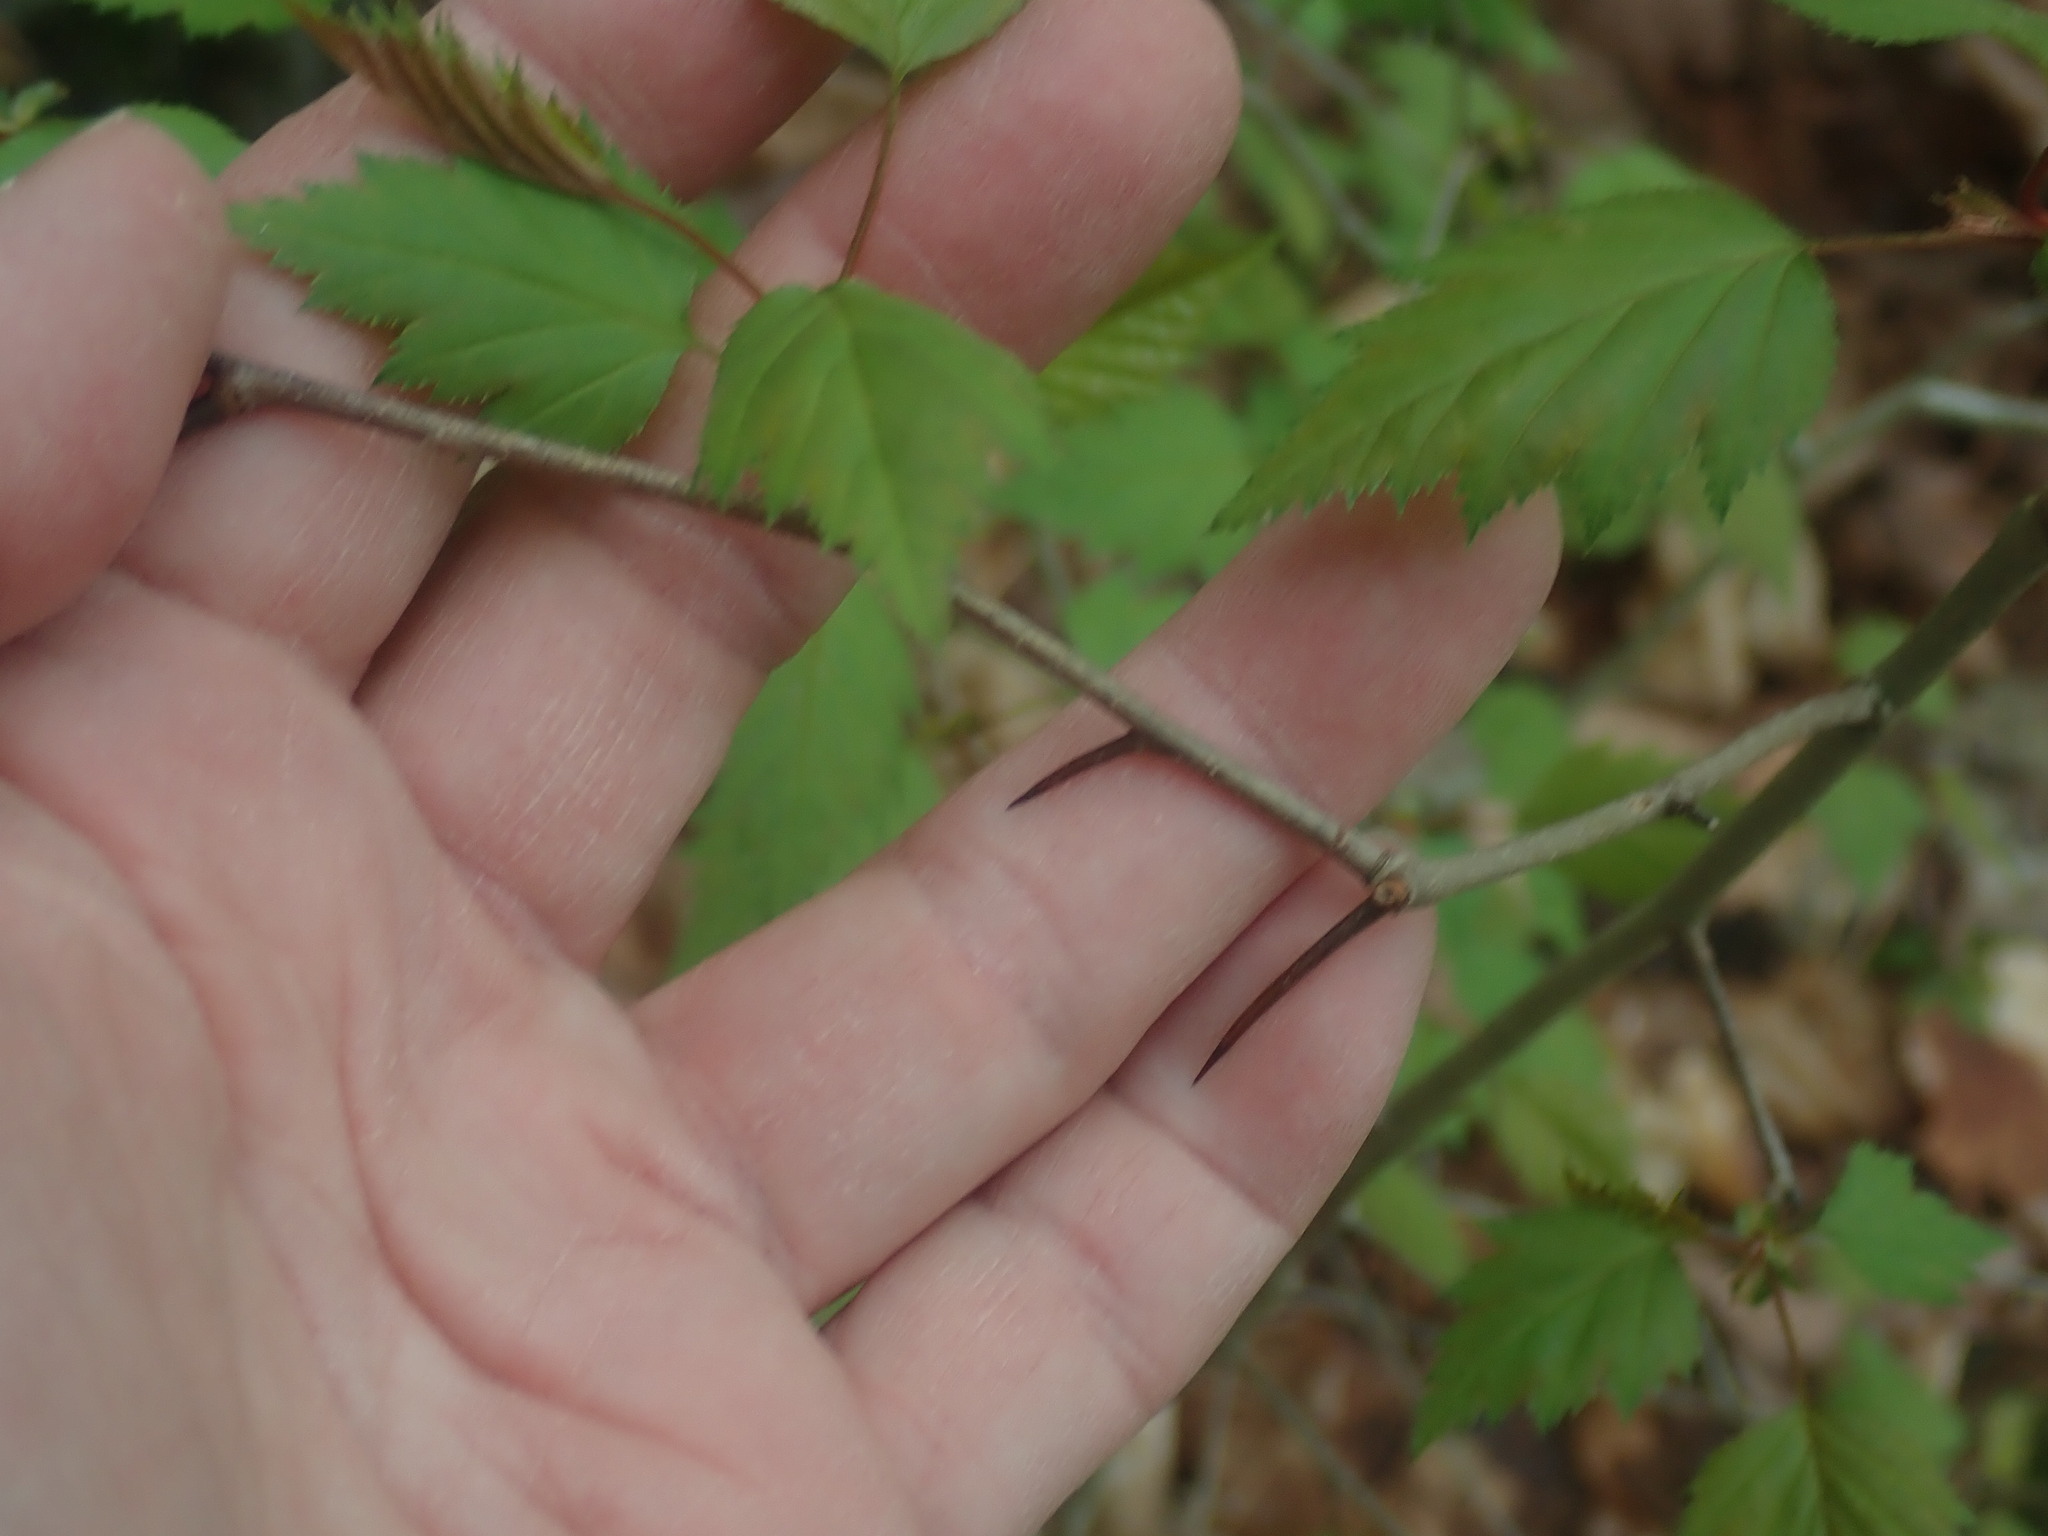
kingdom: Plantae
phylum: Tracheophyta
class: Magnoliopsida
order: Rosales
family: Rosaceae
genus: Crataegus
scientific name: Crataegus
